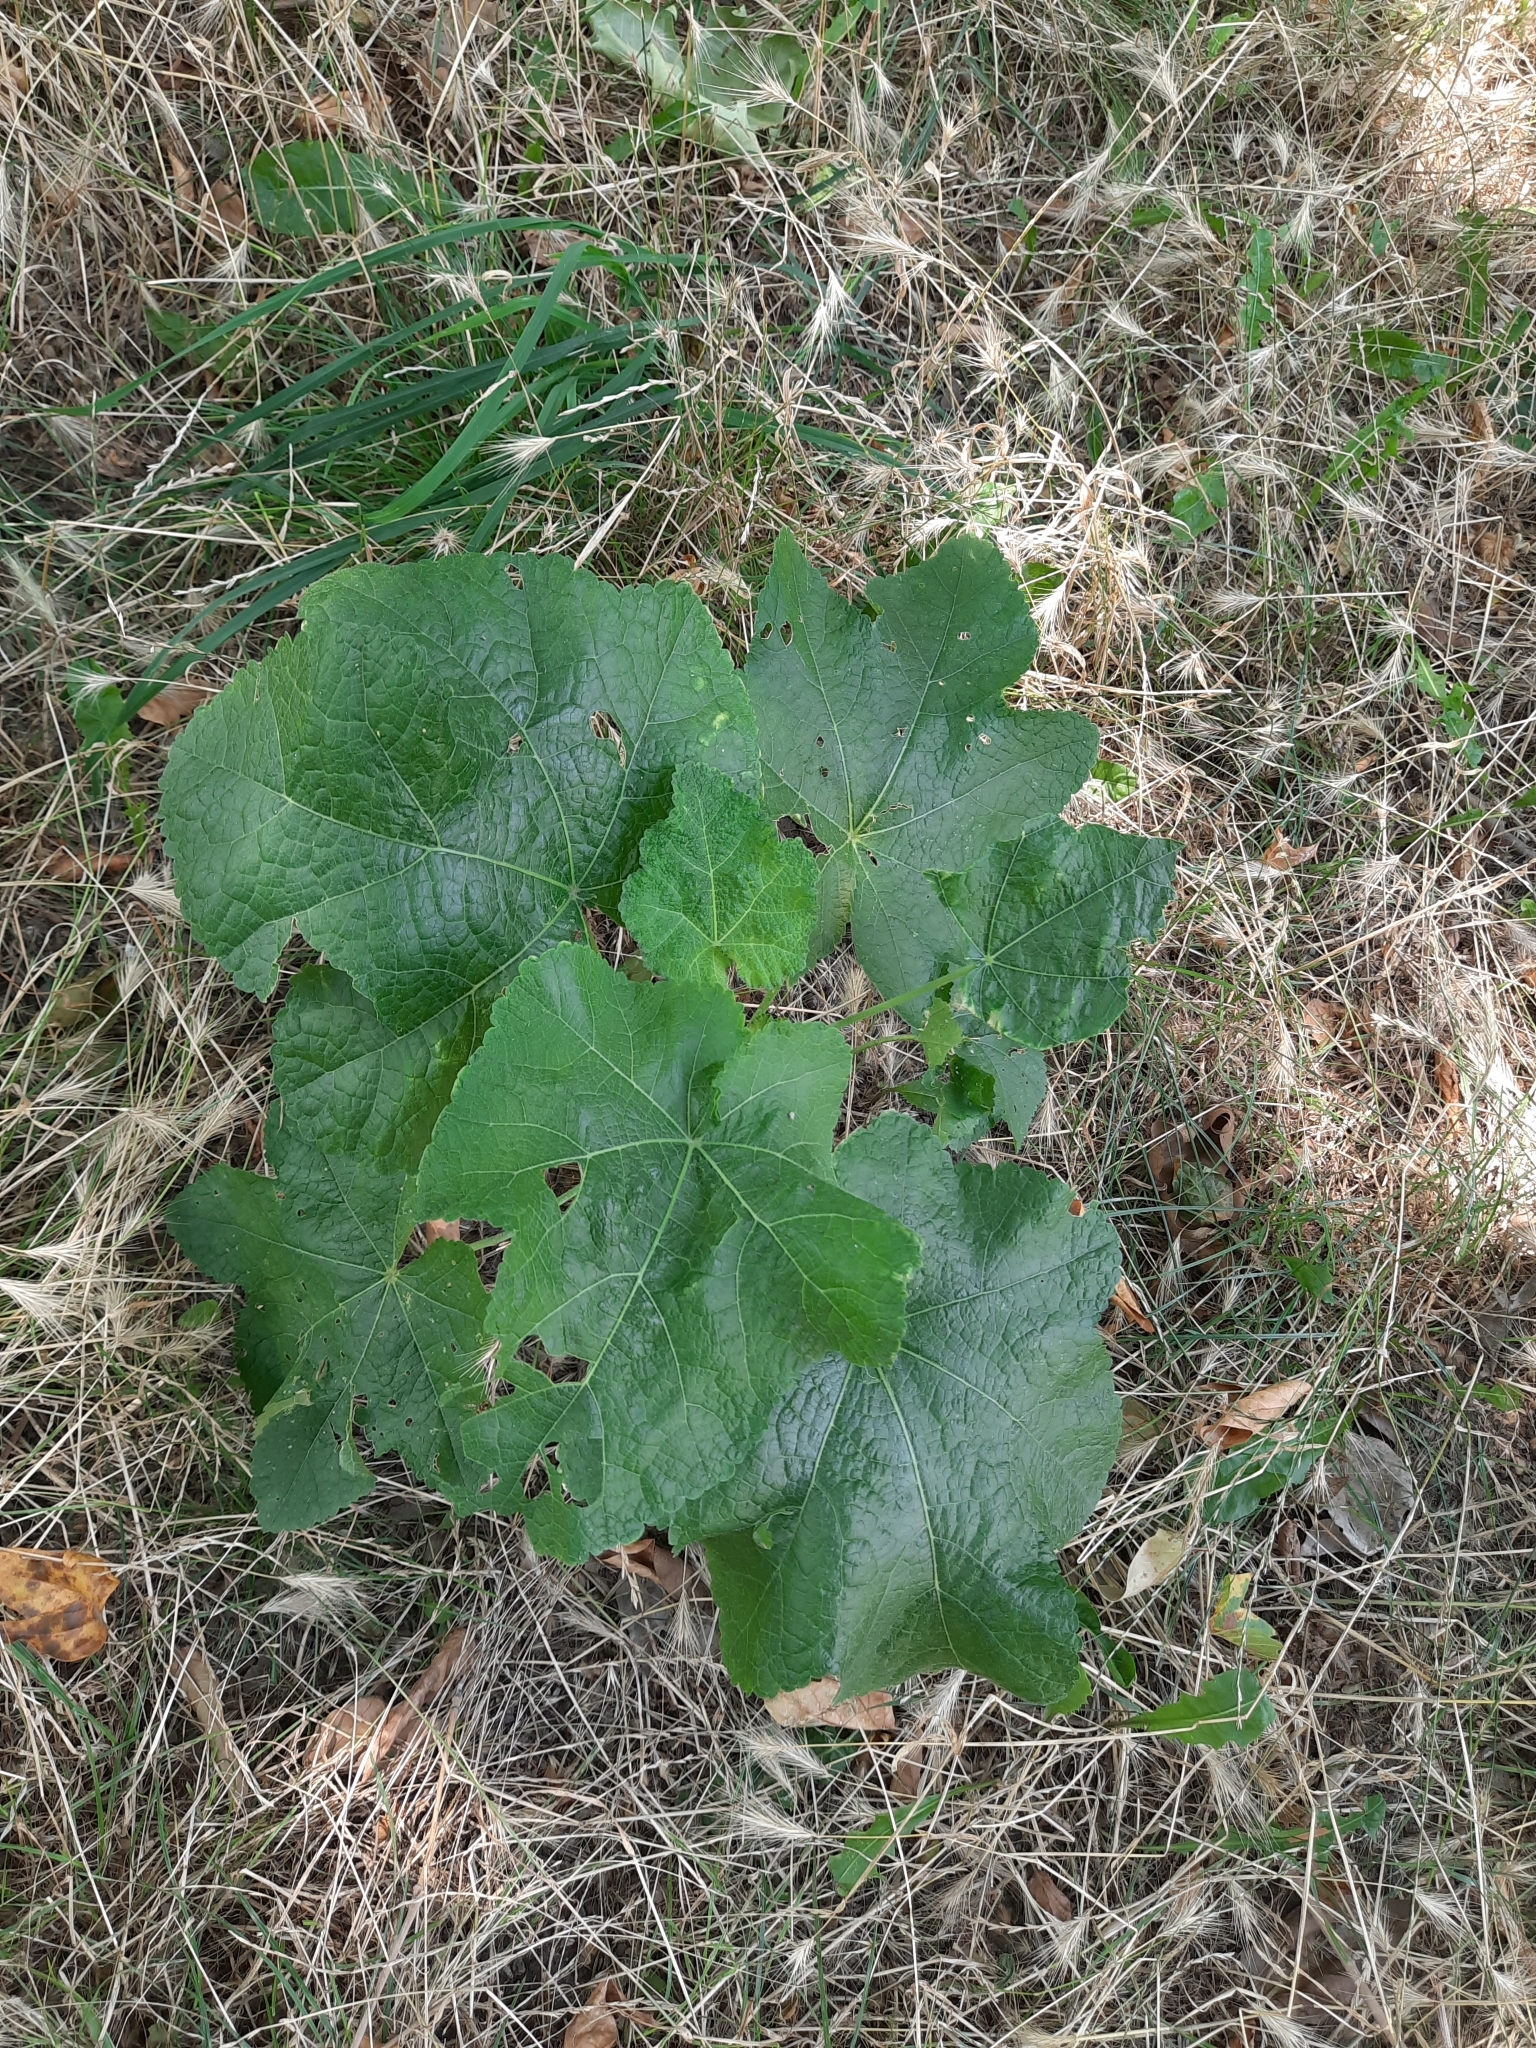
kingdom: Plantae
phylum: Tracheophyta
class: Magnoliopsida
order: Malvales
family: Malvaceae
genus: Alcea
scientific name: Alcea rosea
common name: Hollyhock
